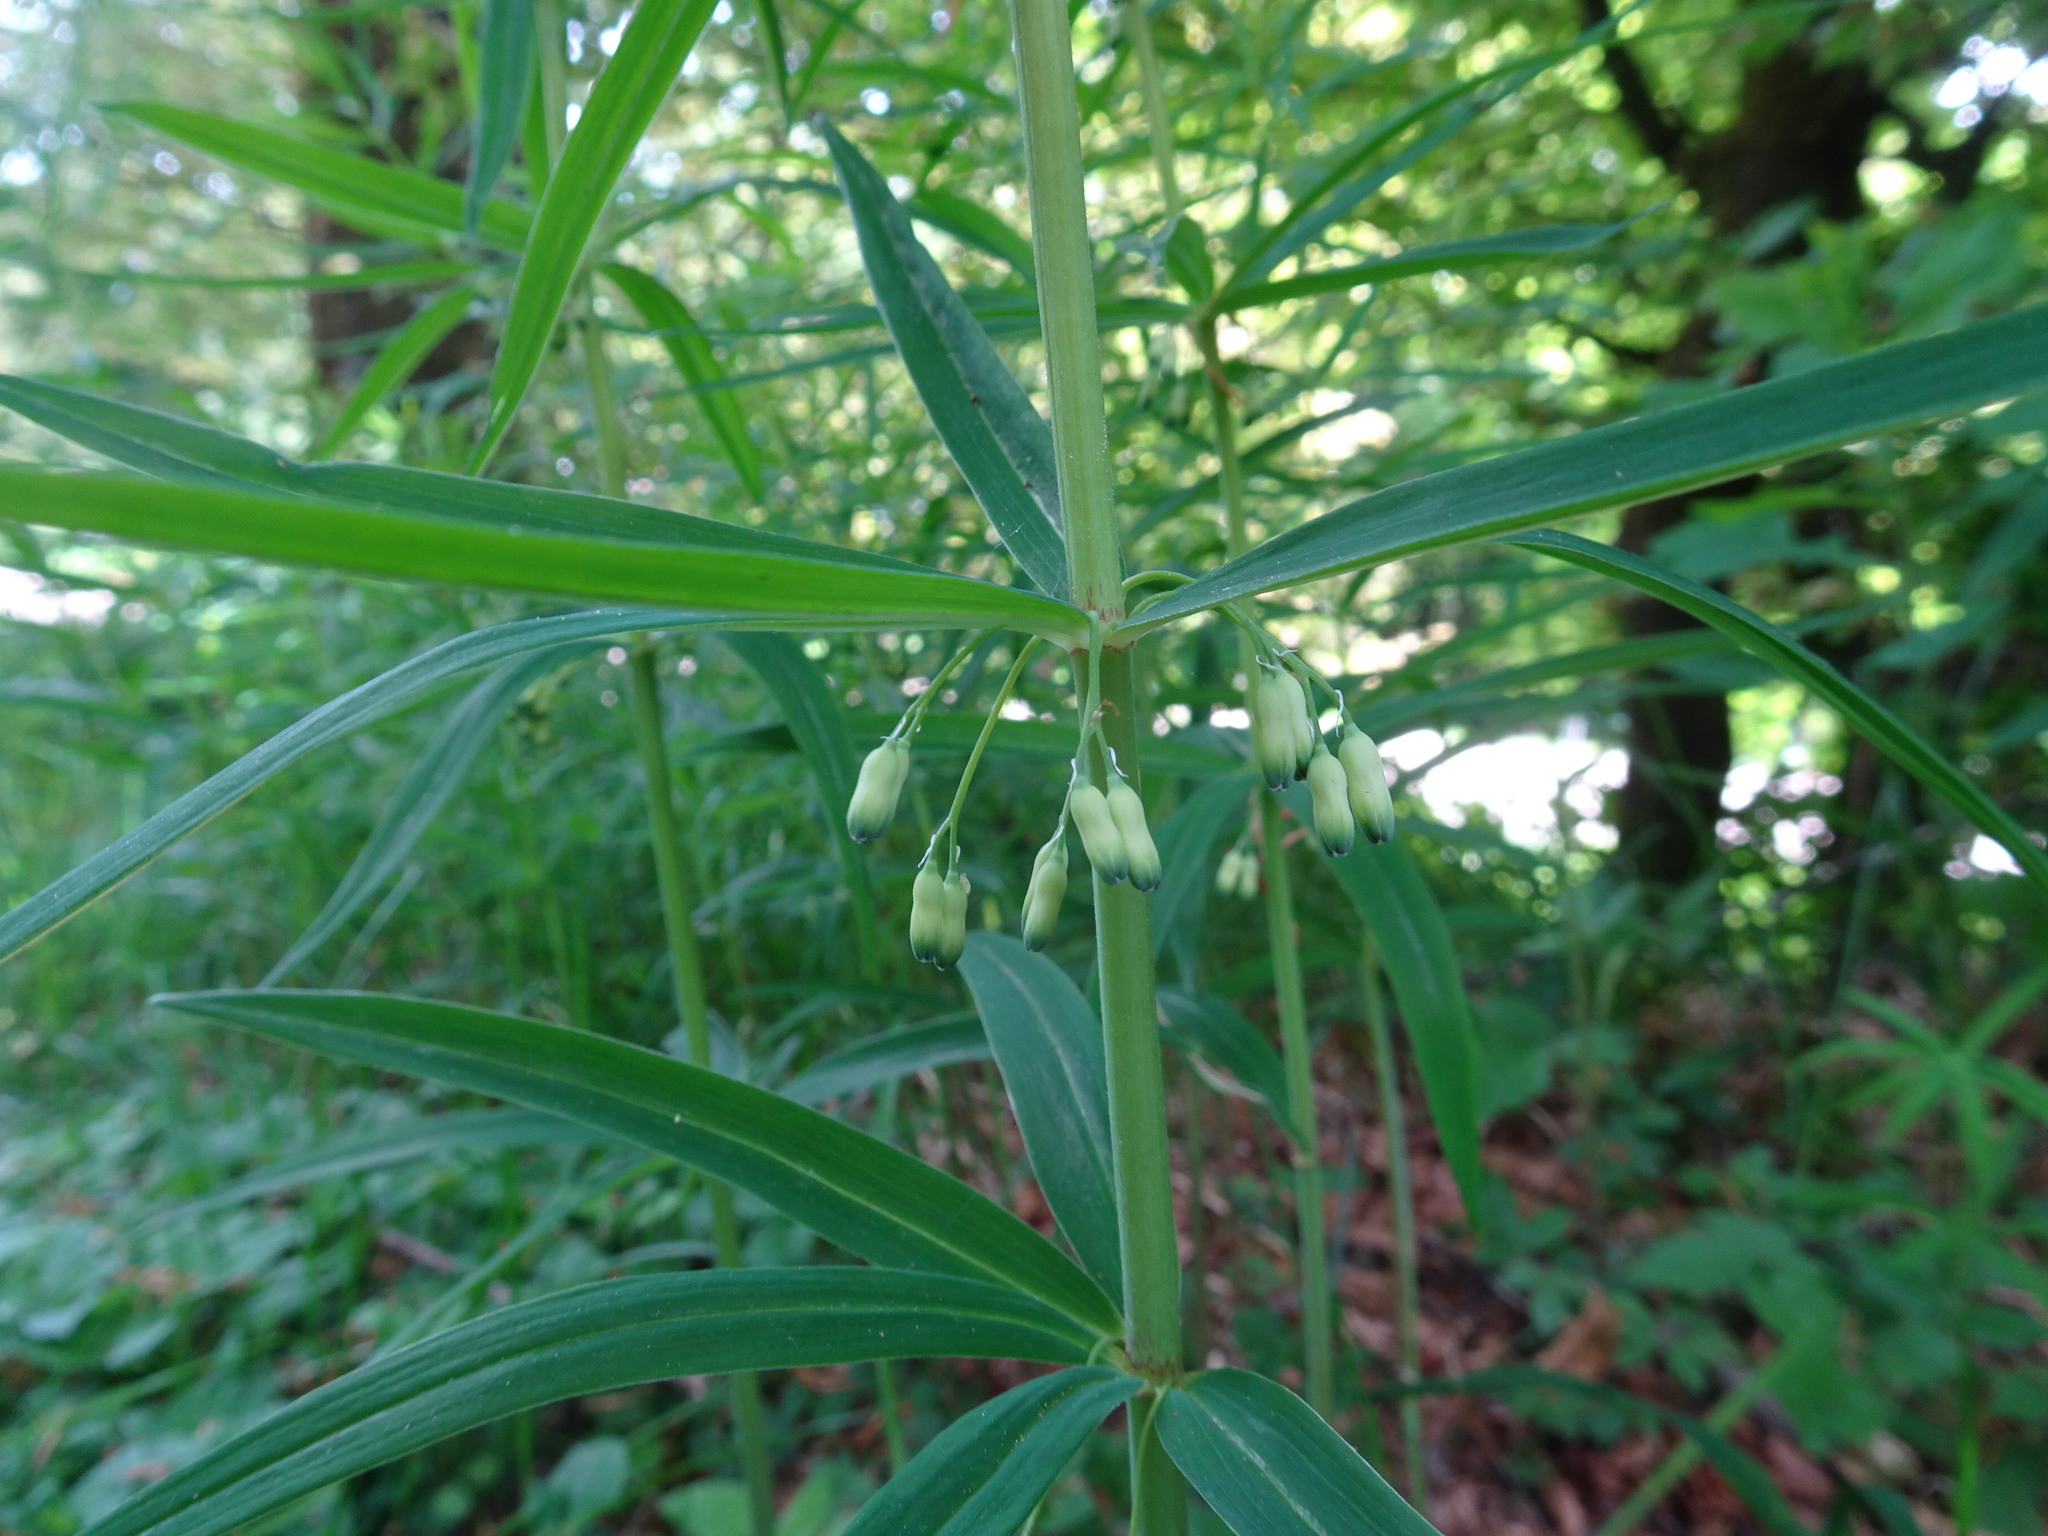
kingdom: Plantae
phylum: Tracheophyta
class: Liliopsida
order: Asparagales
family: Asparagaceae
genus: Polygonatum
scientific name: Polygonatum verticillatum
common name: Whorled solomon's-seal
